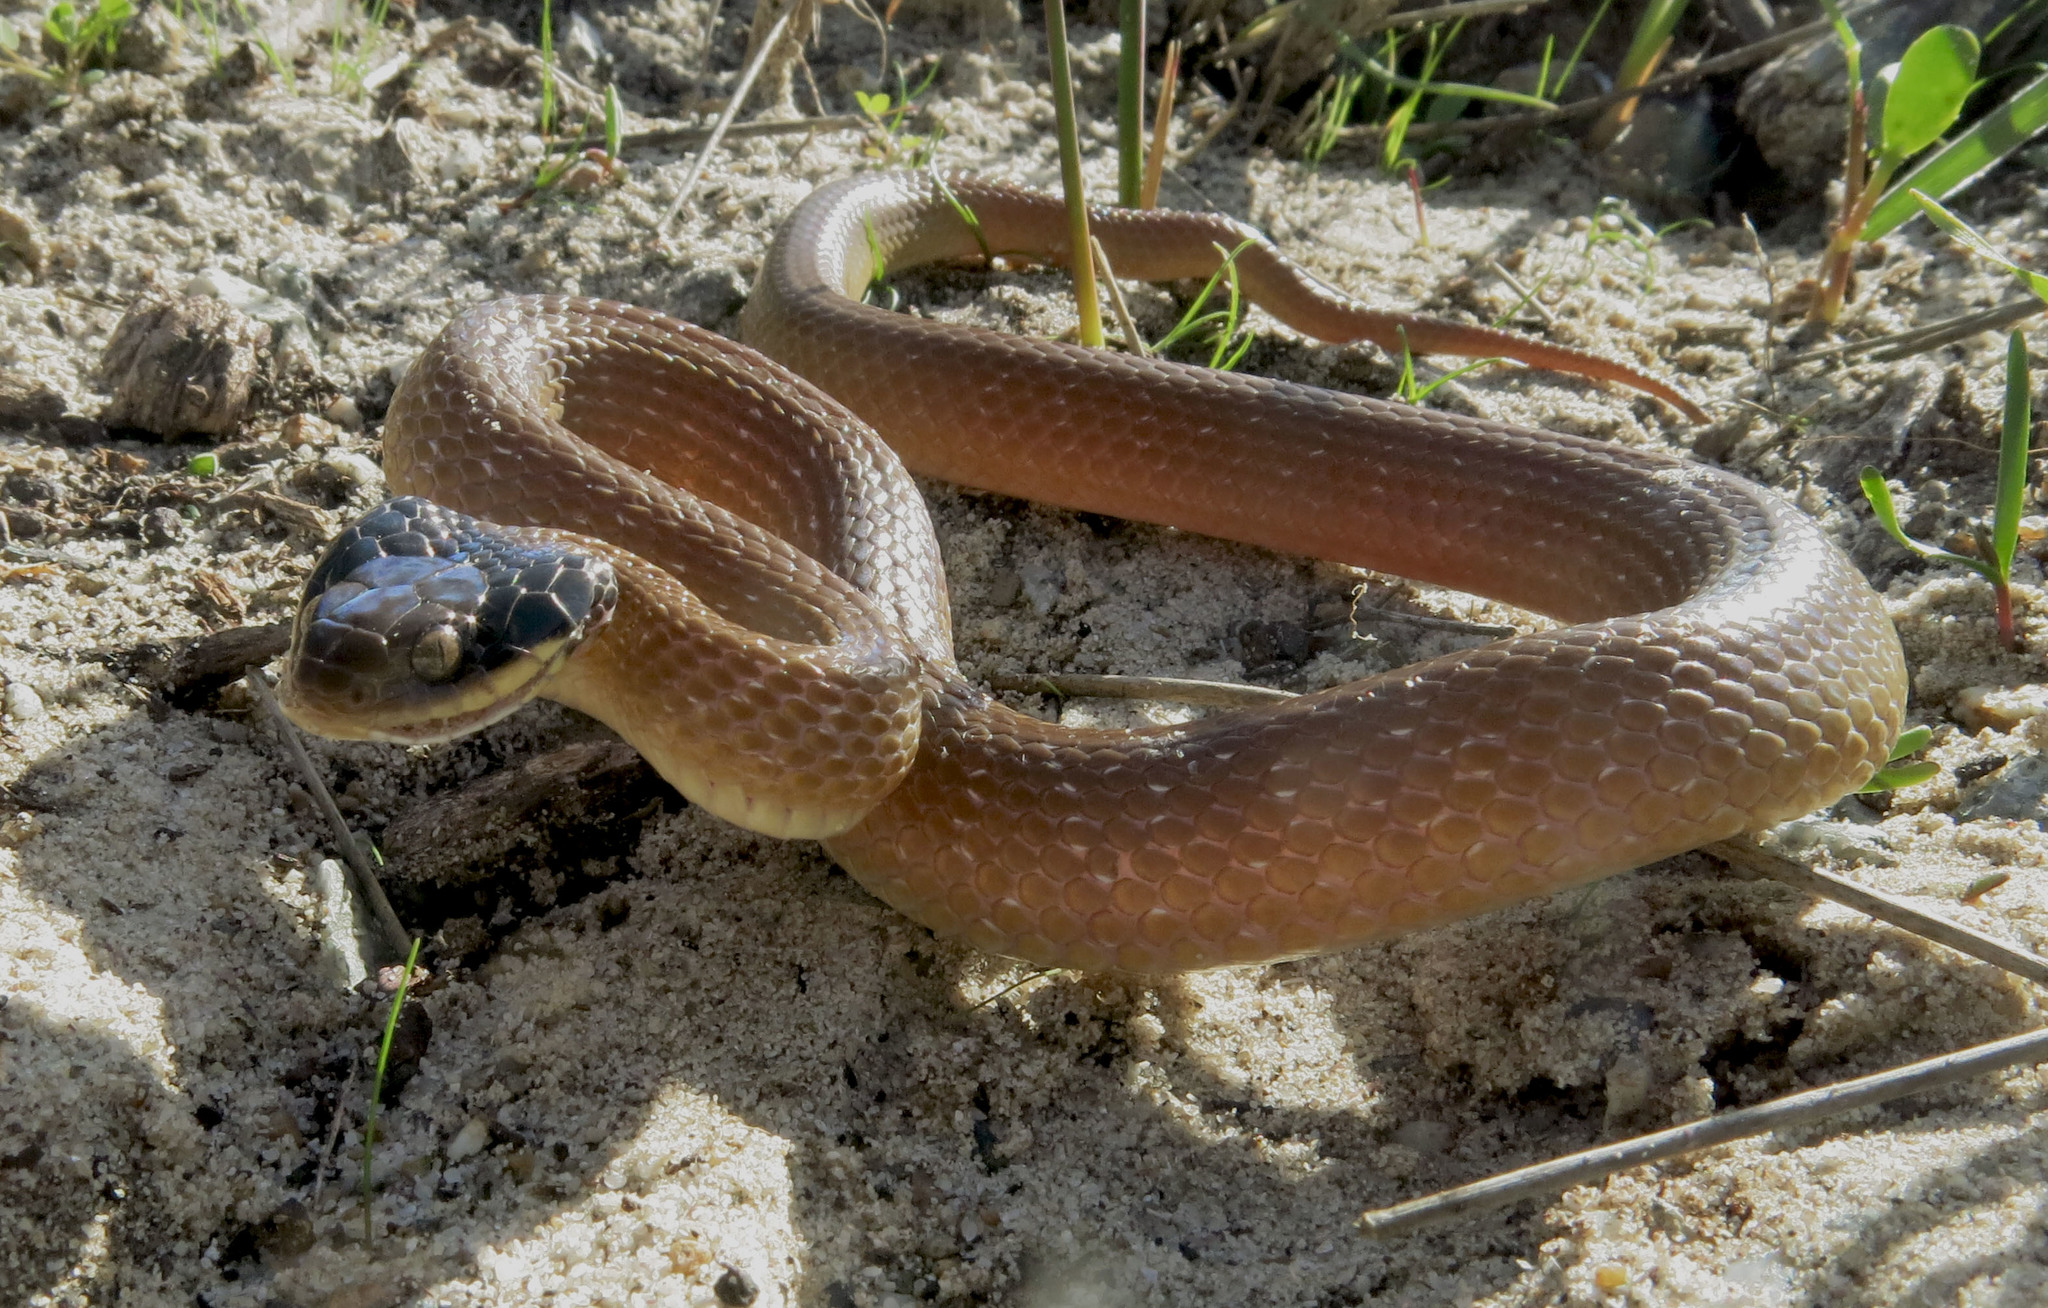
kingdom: Animalia
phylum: Chordata
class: Squamata
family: Colubridae
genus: Crotaphopeltis
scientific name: Crotaphopeltis hotamboeia
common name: Red-lipped snake
